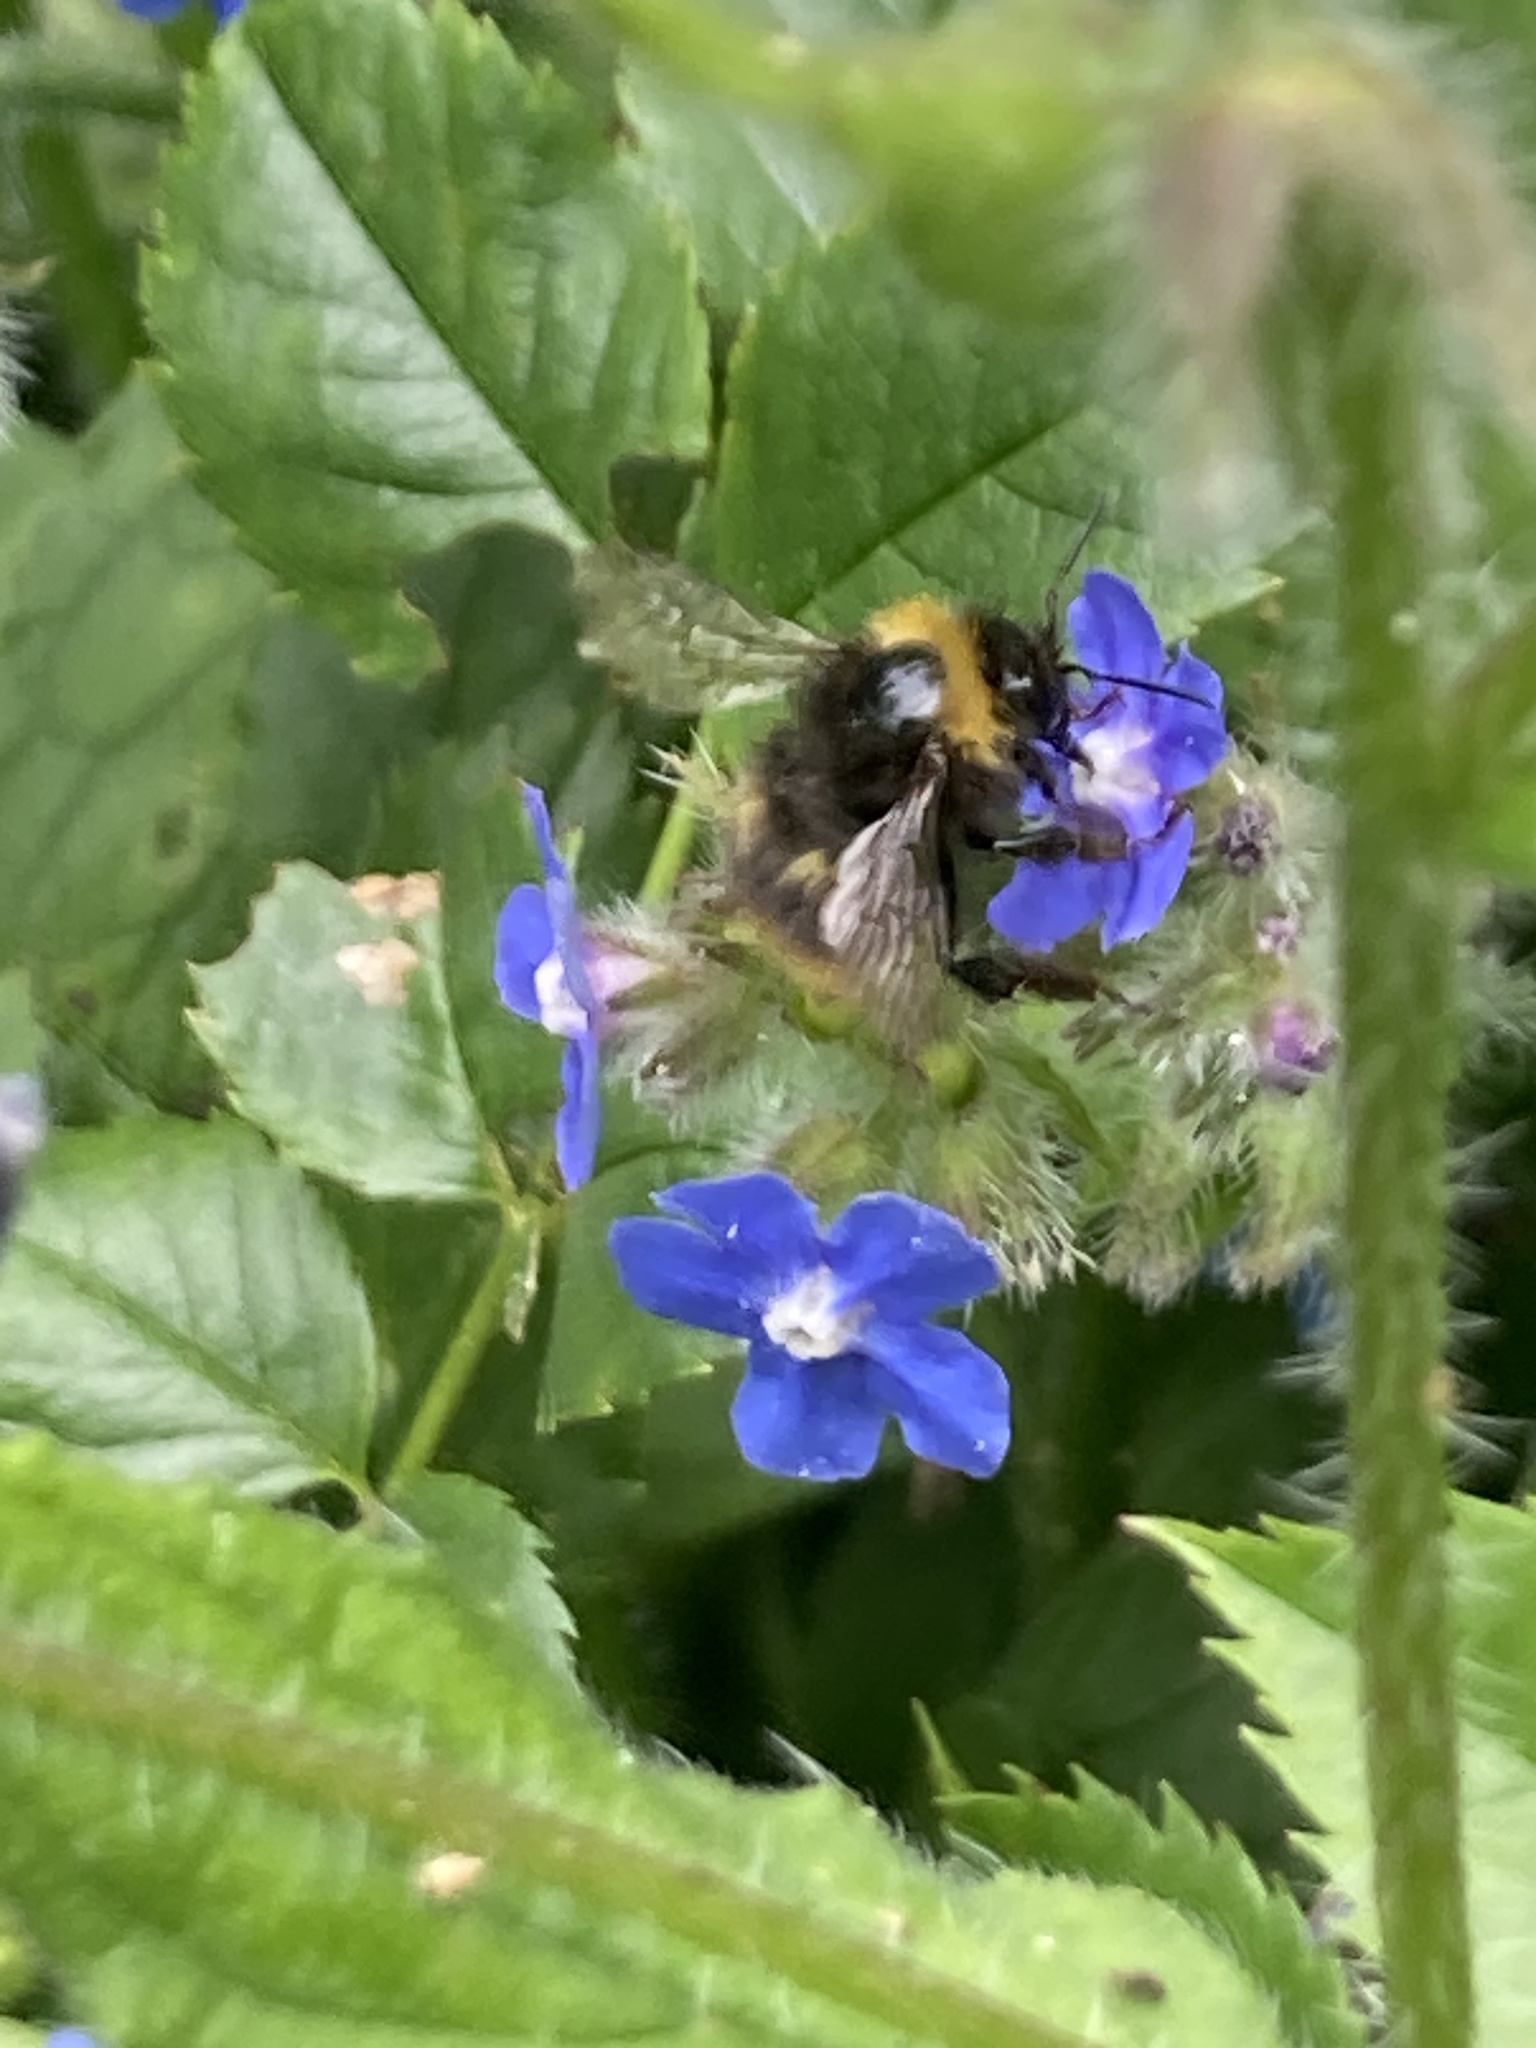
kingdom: Animalia
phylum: Arthropoda
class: Insecta
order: Hymenoptera
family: Apidae
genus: Bombus
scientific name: Bombus pratorum
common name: Early humble-bee
